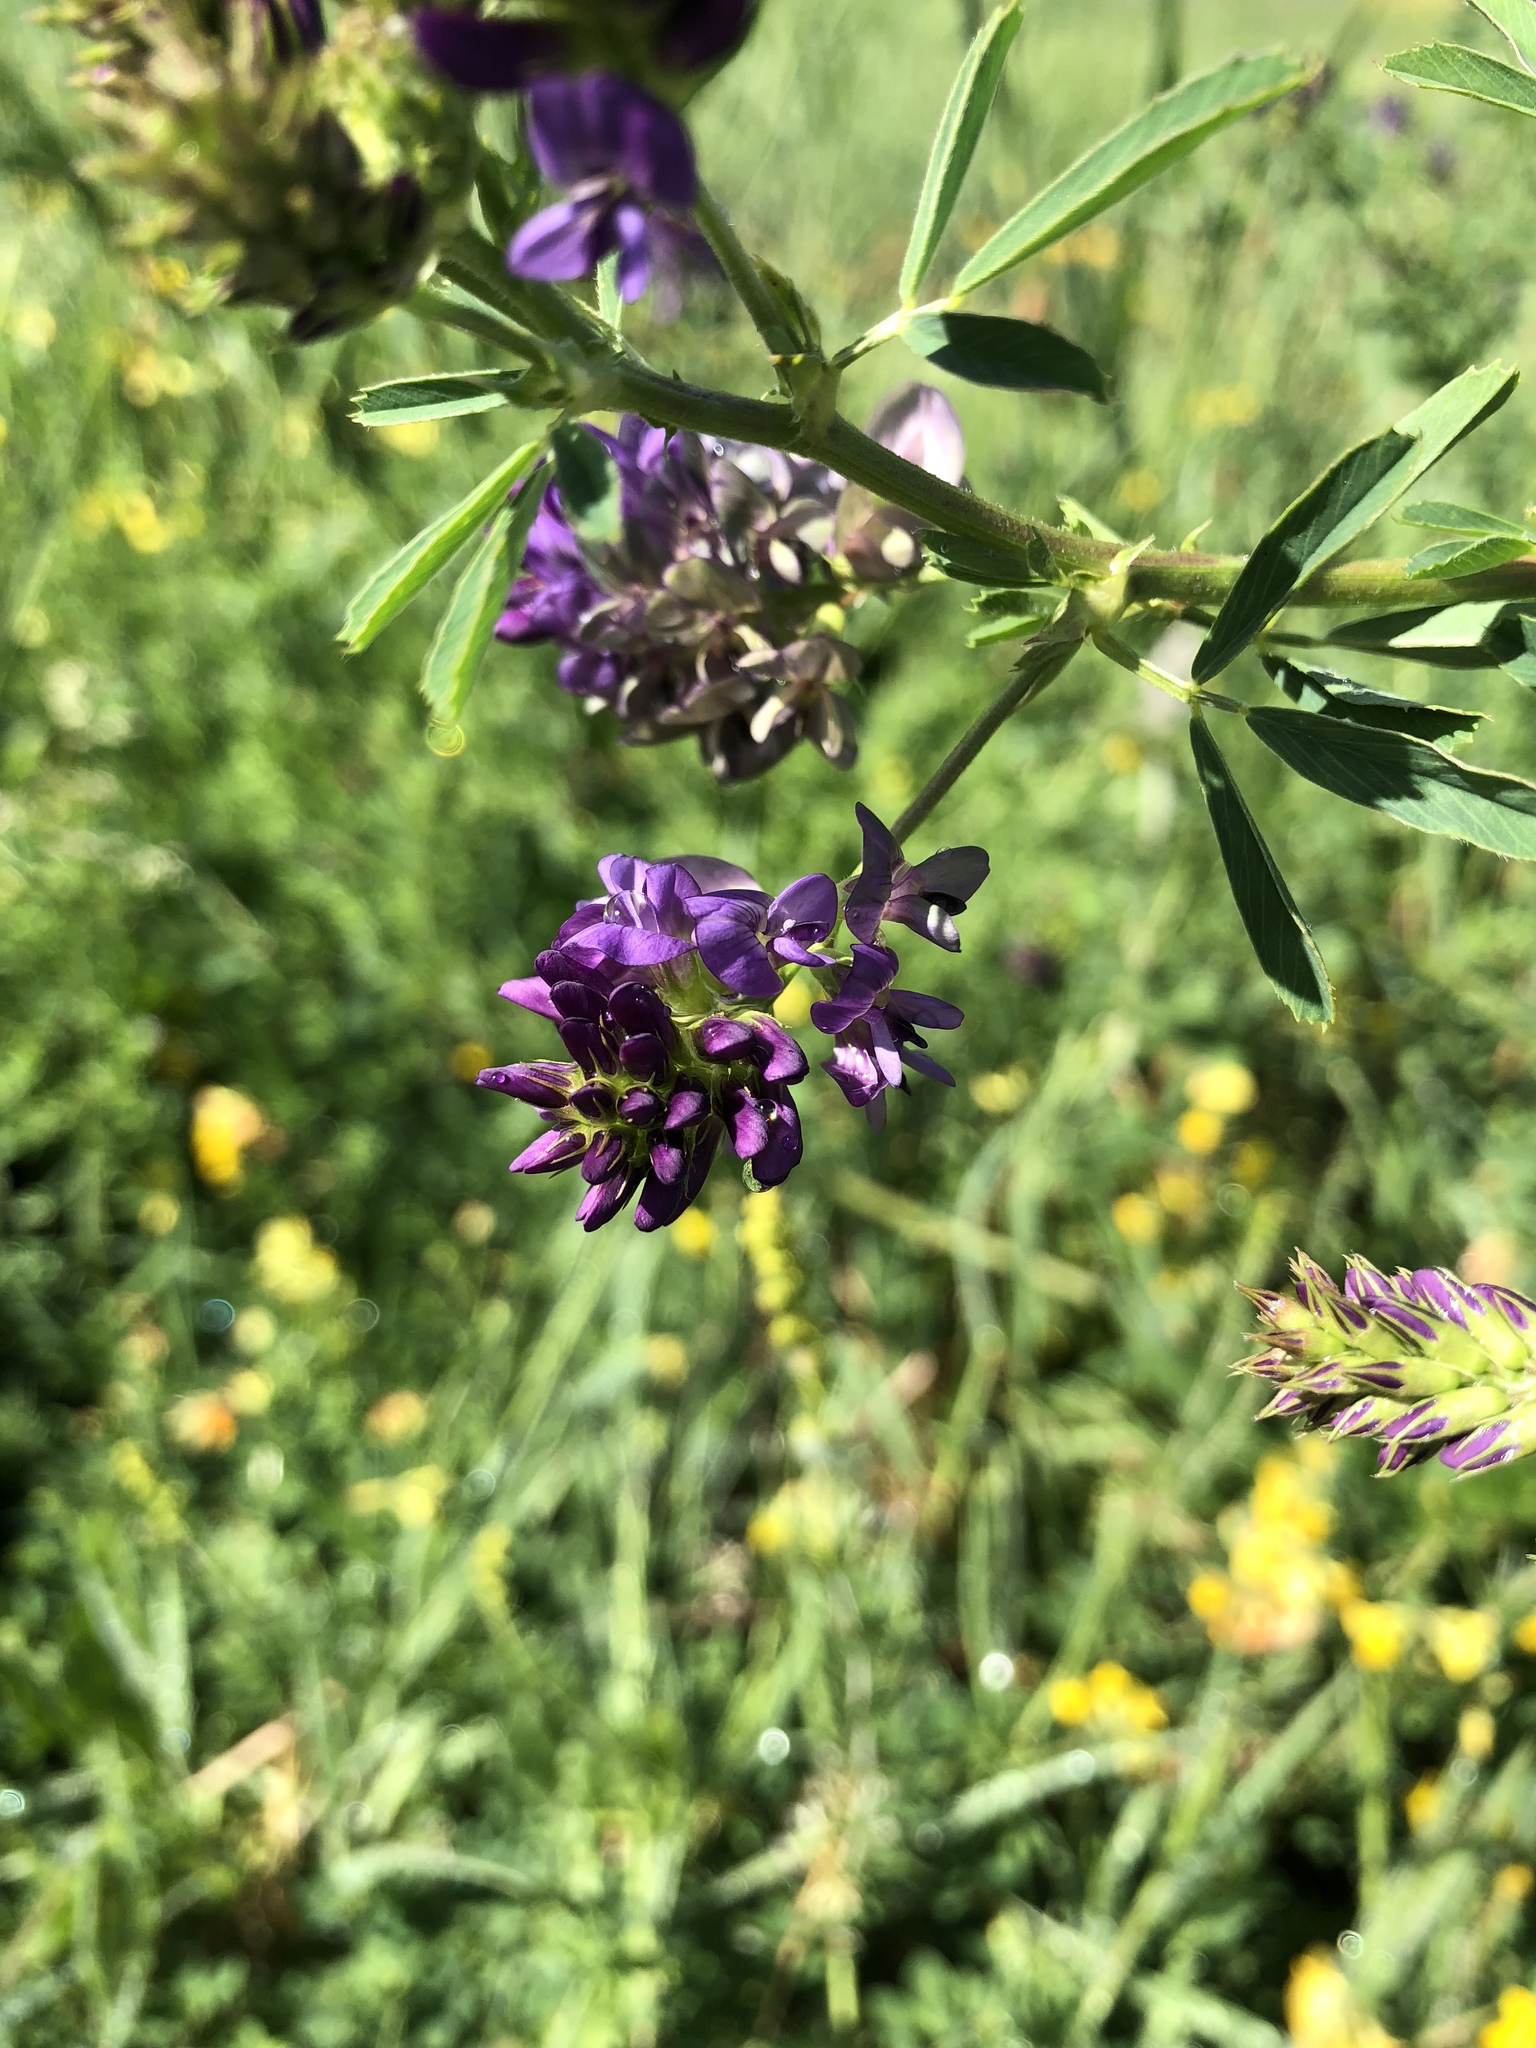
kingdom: Plantae
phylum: Tracheophyta
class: Magnoliopsida
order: Fabales
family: Fabaceae
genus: Medicago
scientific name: Medicago sativa
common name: Alfalfa
